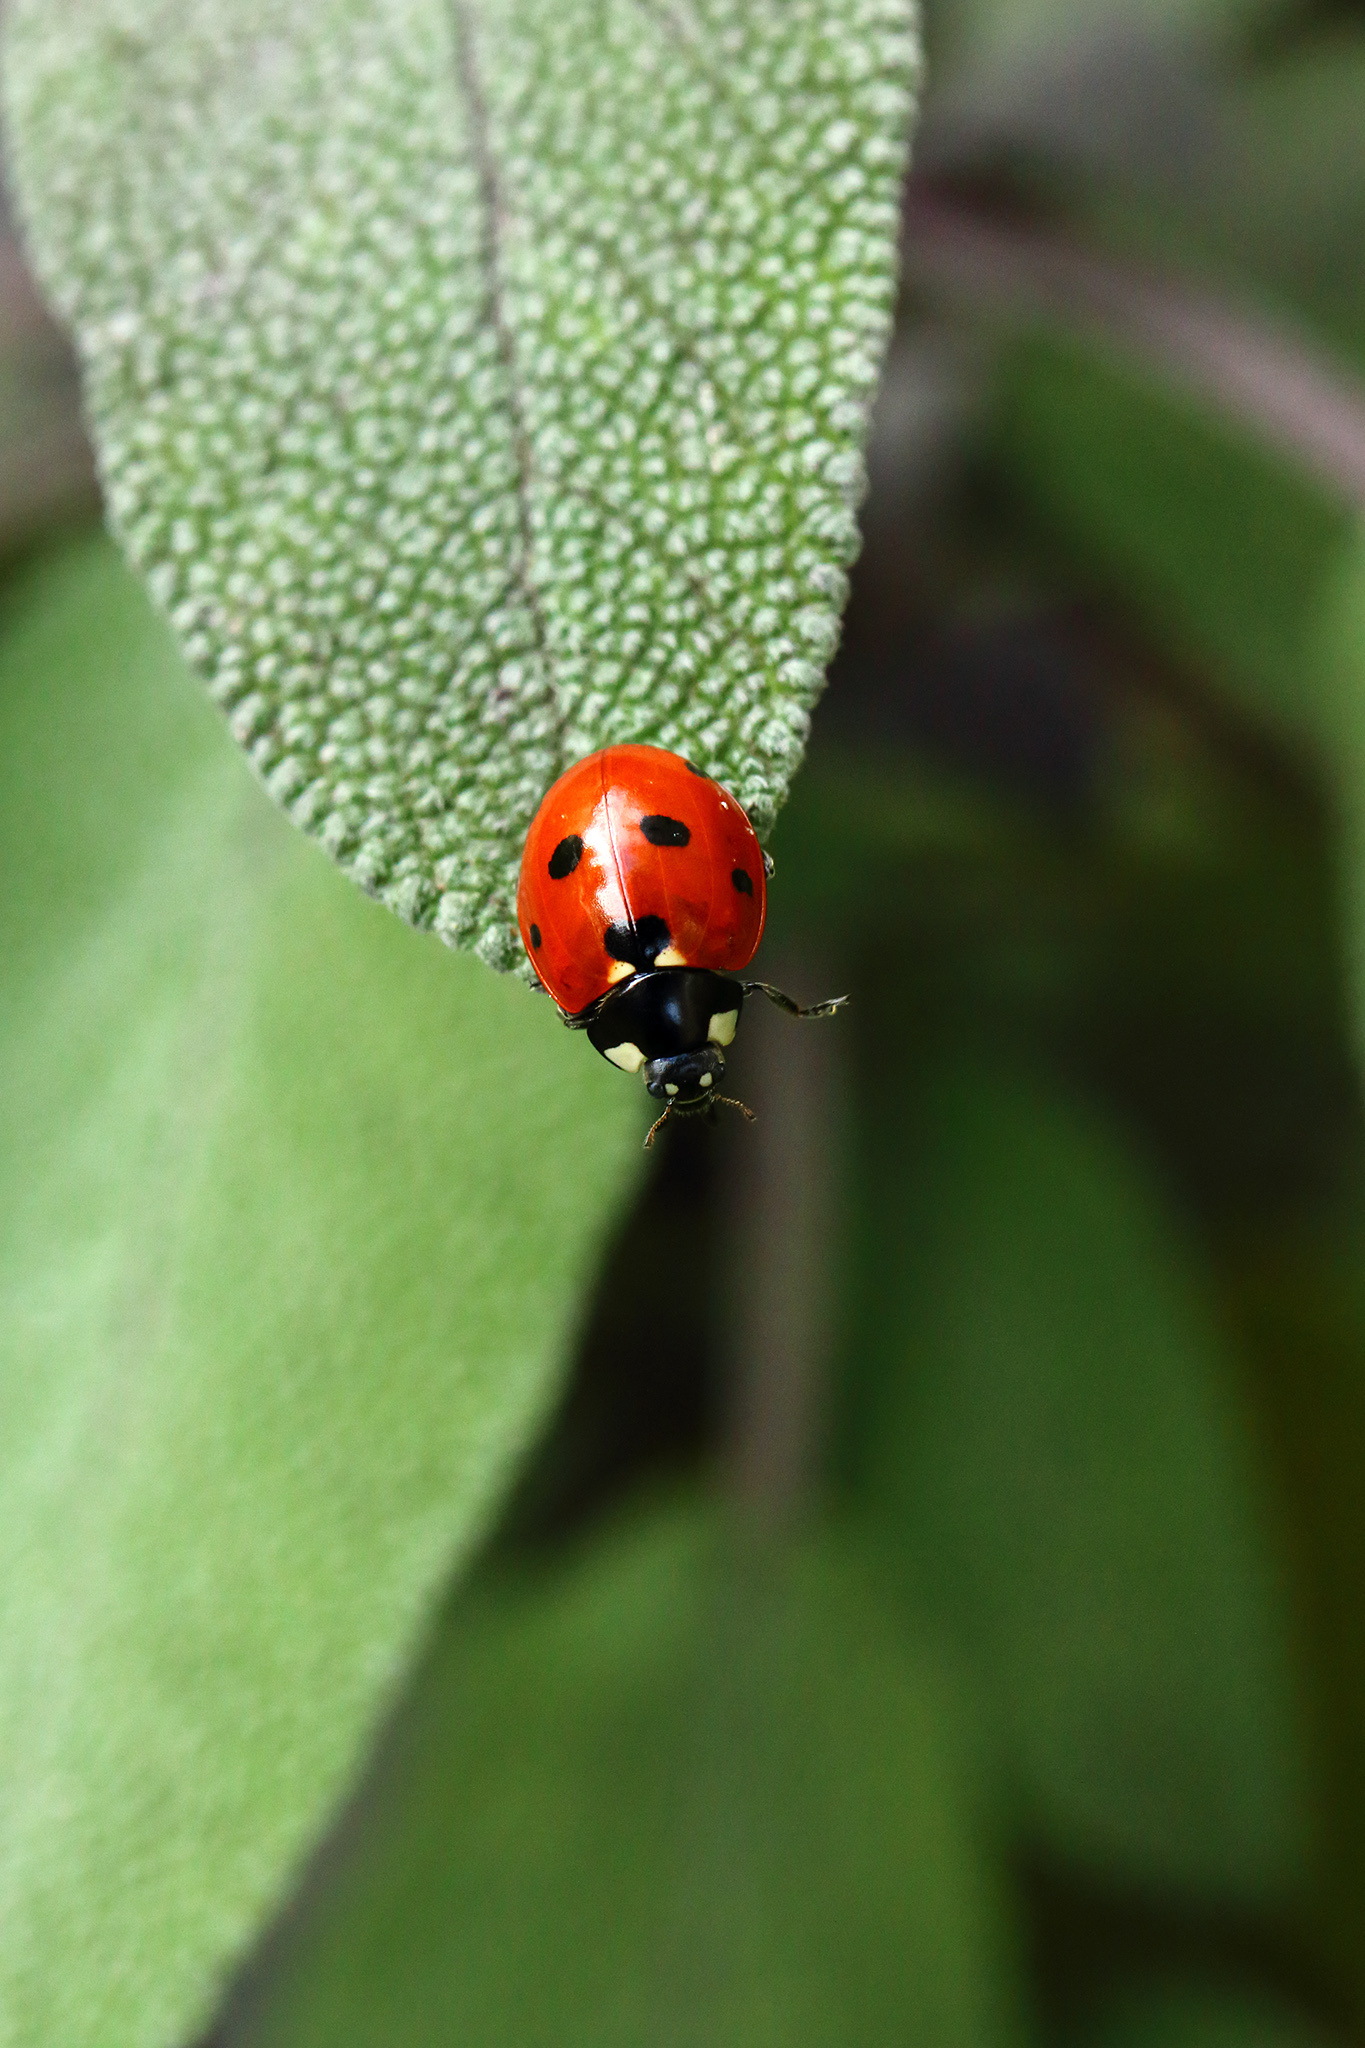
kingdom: Animalia
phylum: Arthropoda
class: Insecta
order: Coleoptera
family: Coccinellidae
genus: Coccinella
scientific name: Coccinella septempunctata
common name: Sevenspotted lady beetle
